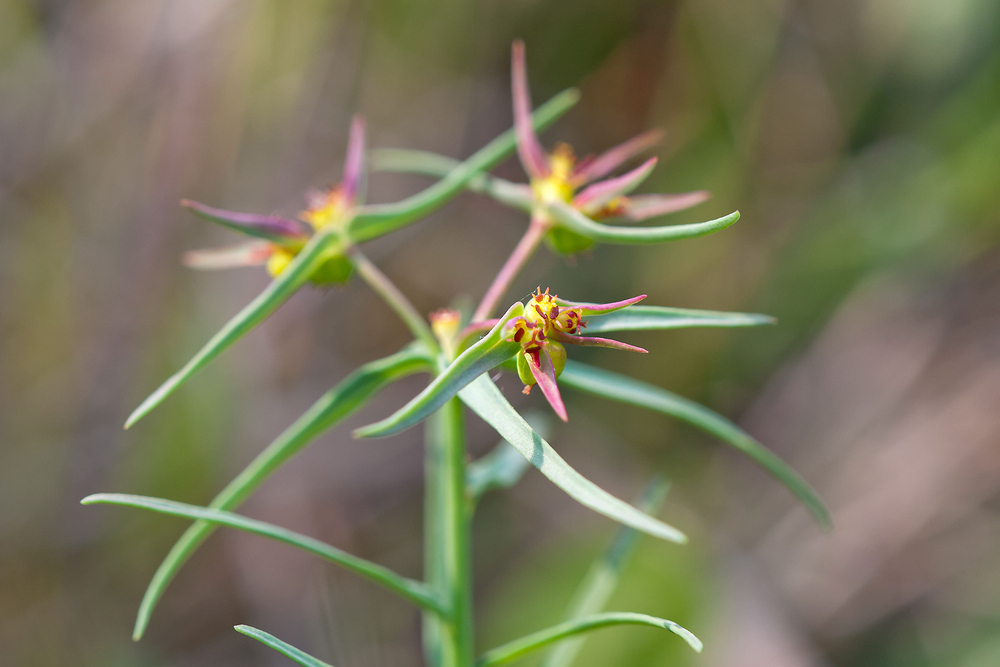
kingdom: Plantae
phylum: Tracheophyta
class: Magnoliopsida
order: Malpighiales
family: Euphorbiaceae
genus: Euphorbia
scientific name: Euphorbia exigua
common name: Dwarf spurge
